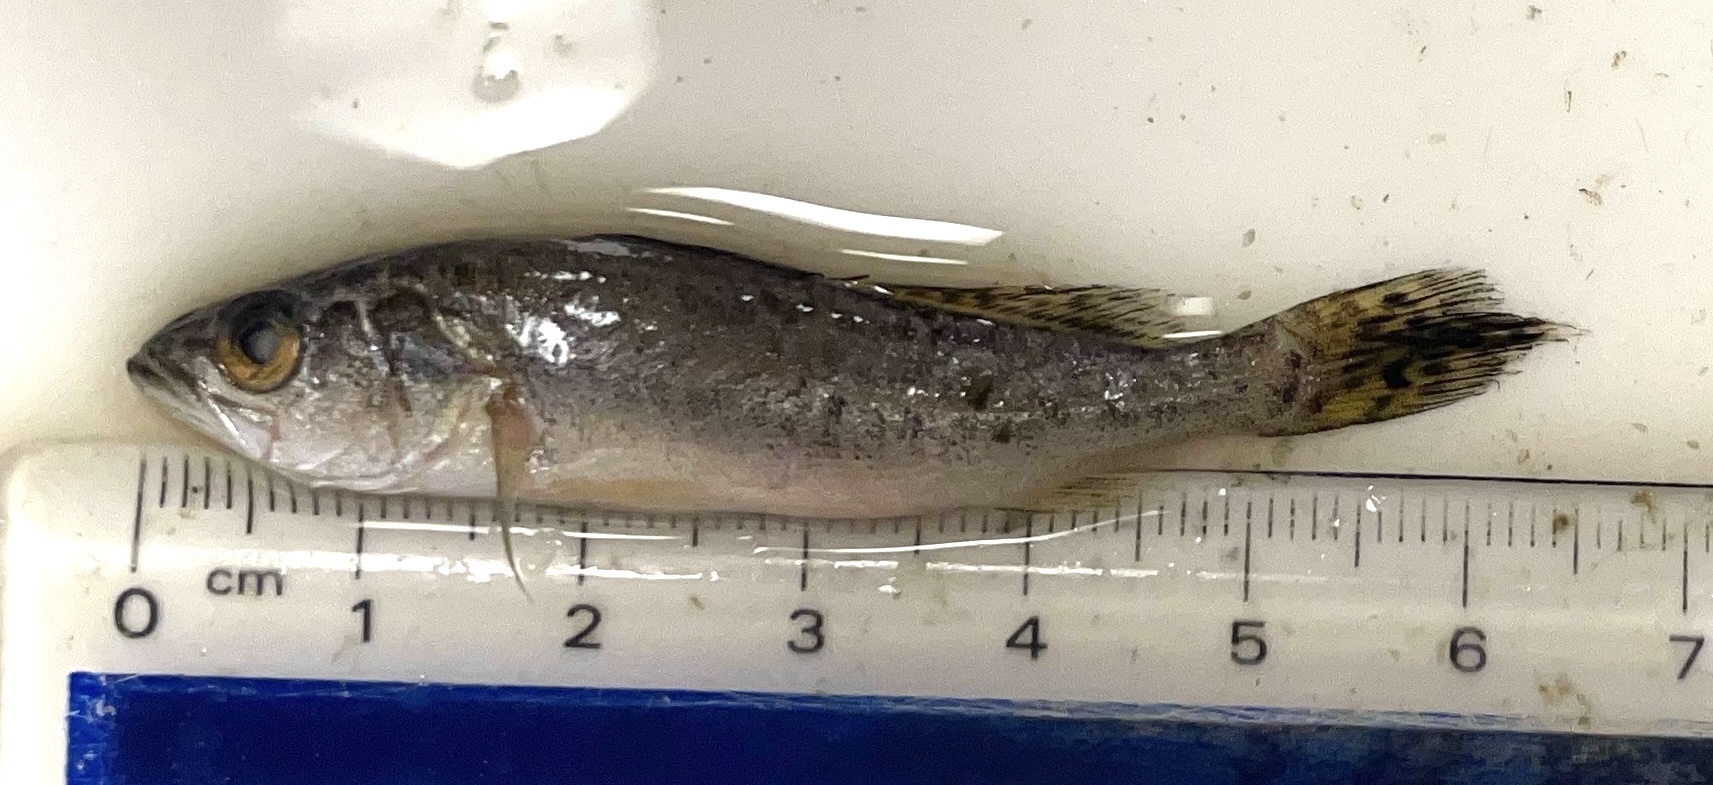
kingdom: Animalia
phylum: Chordata
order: Perciformes
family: Sciaenidae
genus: Cynoscion
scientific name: Cynoscion nebulosus
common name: Spotted seatrout
